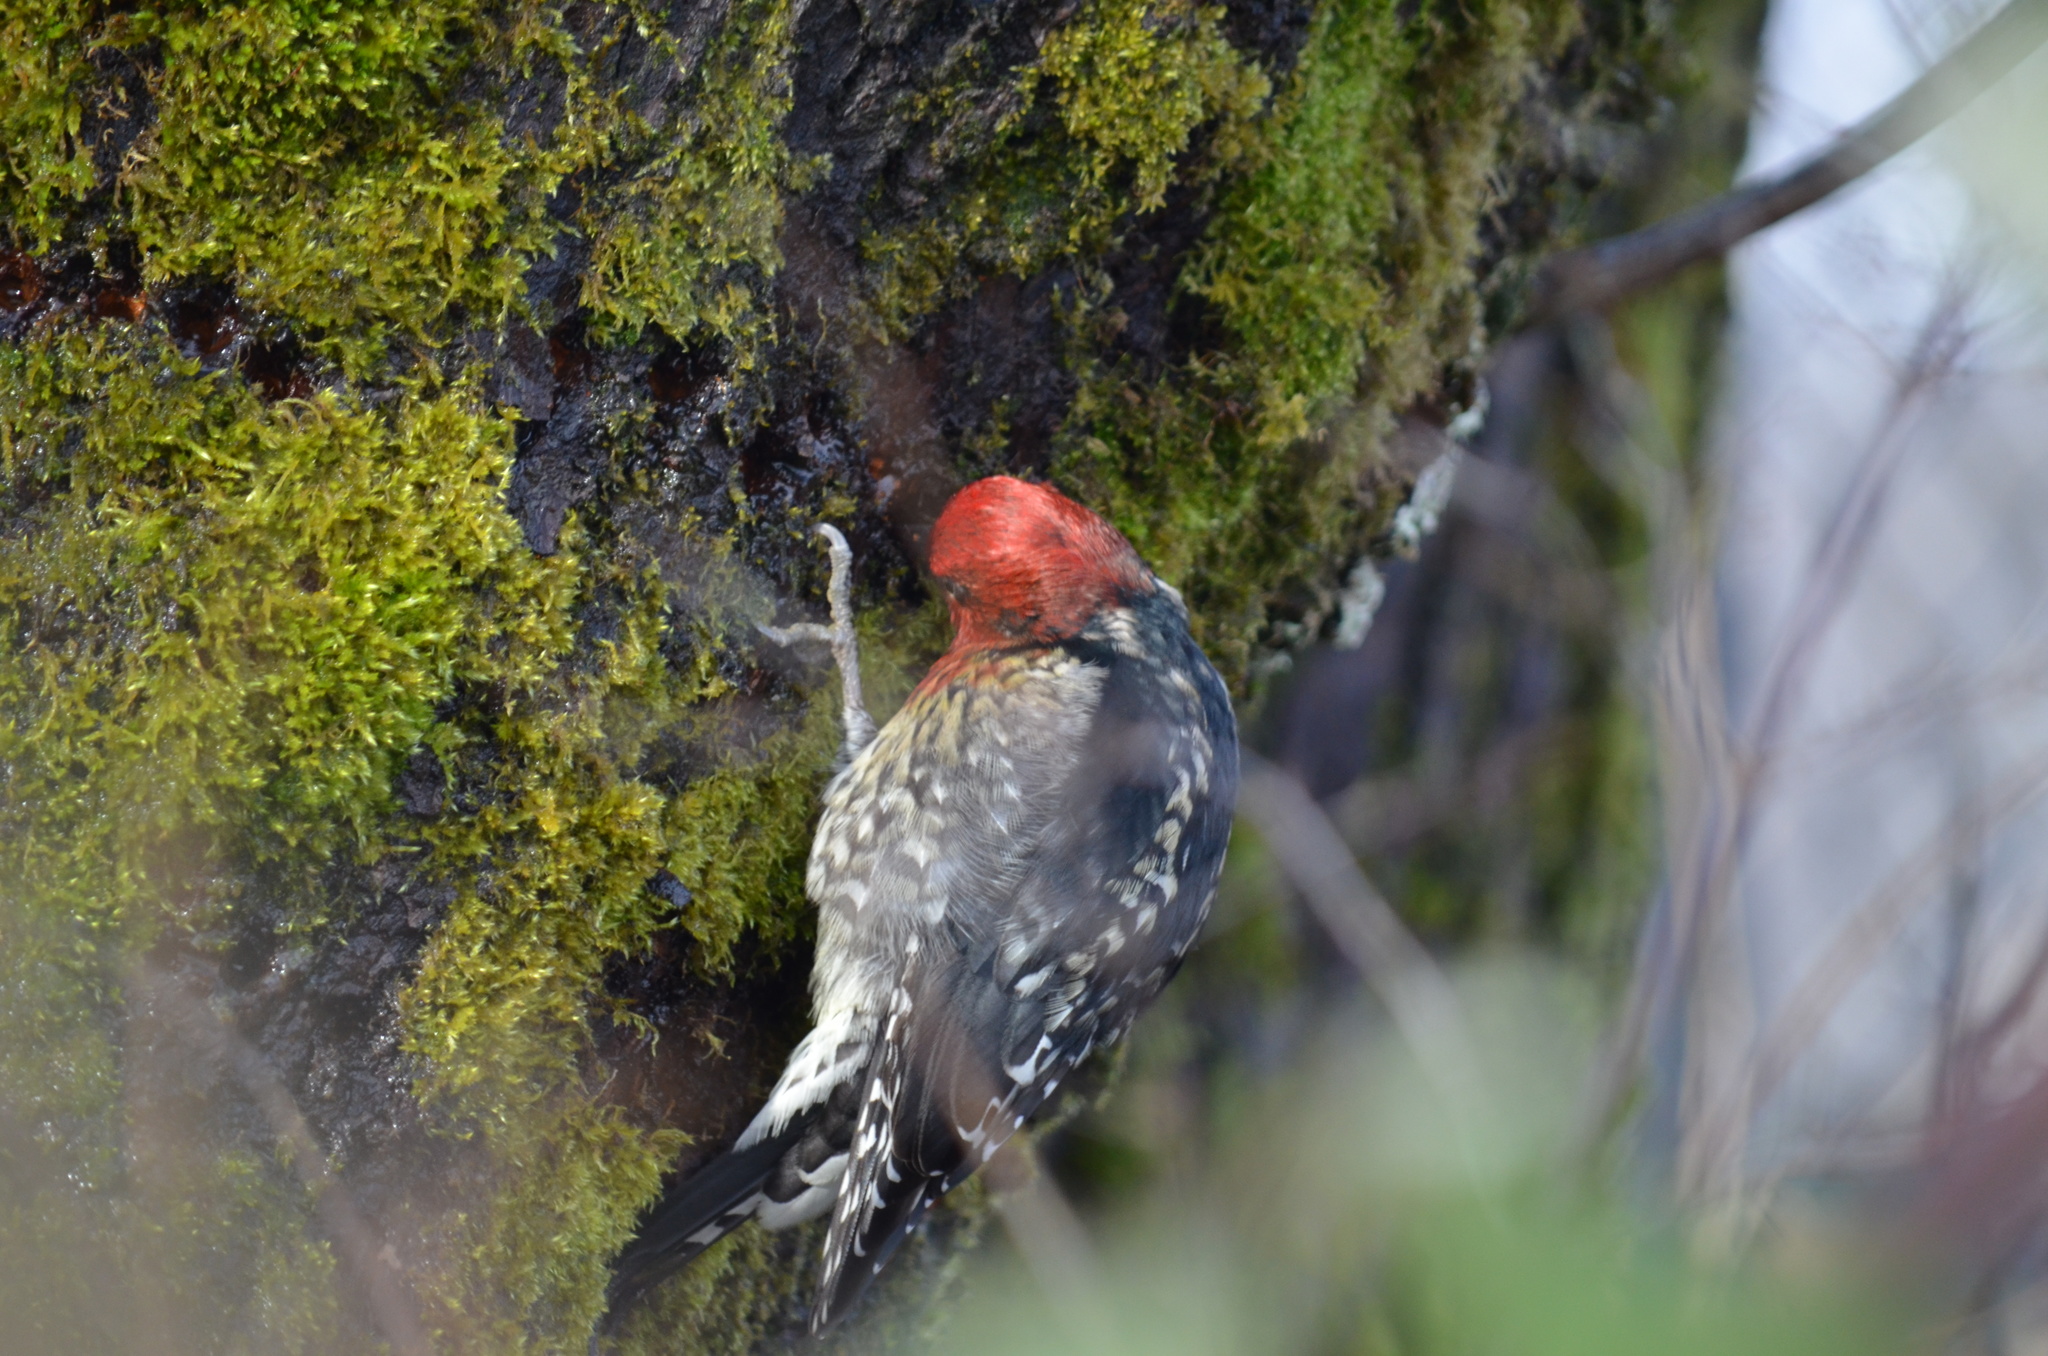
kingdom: Animalia
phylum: Chordata
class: Aves
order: Piciformes
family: Picidae
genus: Sphyrapicus
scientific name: Sphyrapicus ruber
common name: Red-breasted sapsucker
